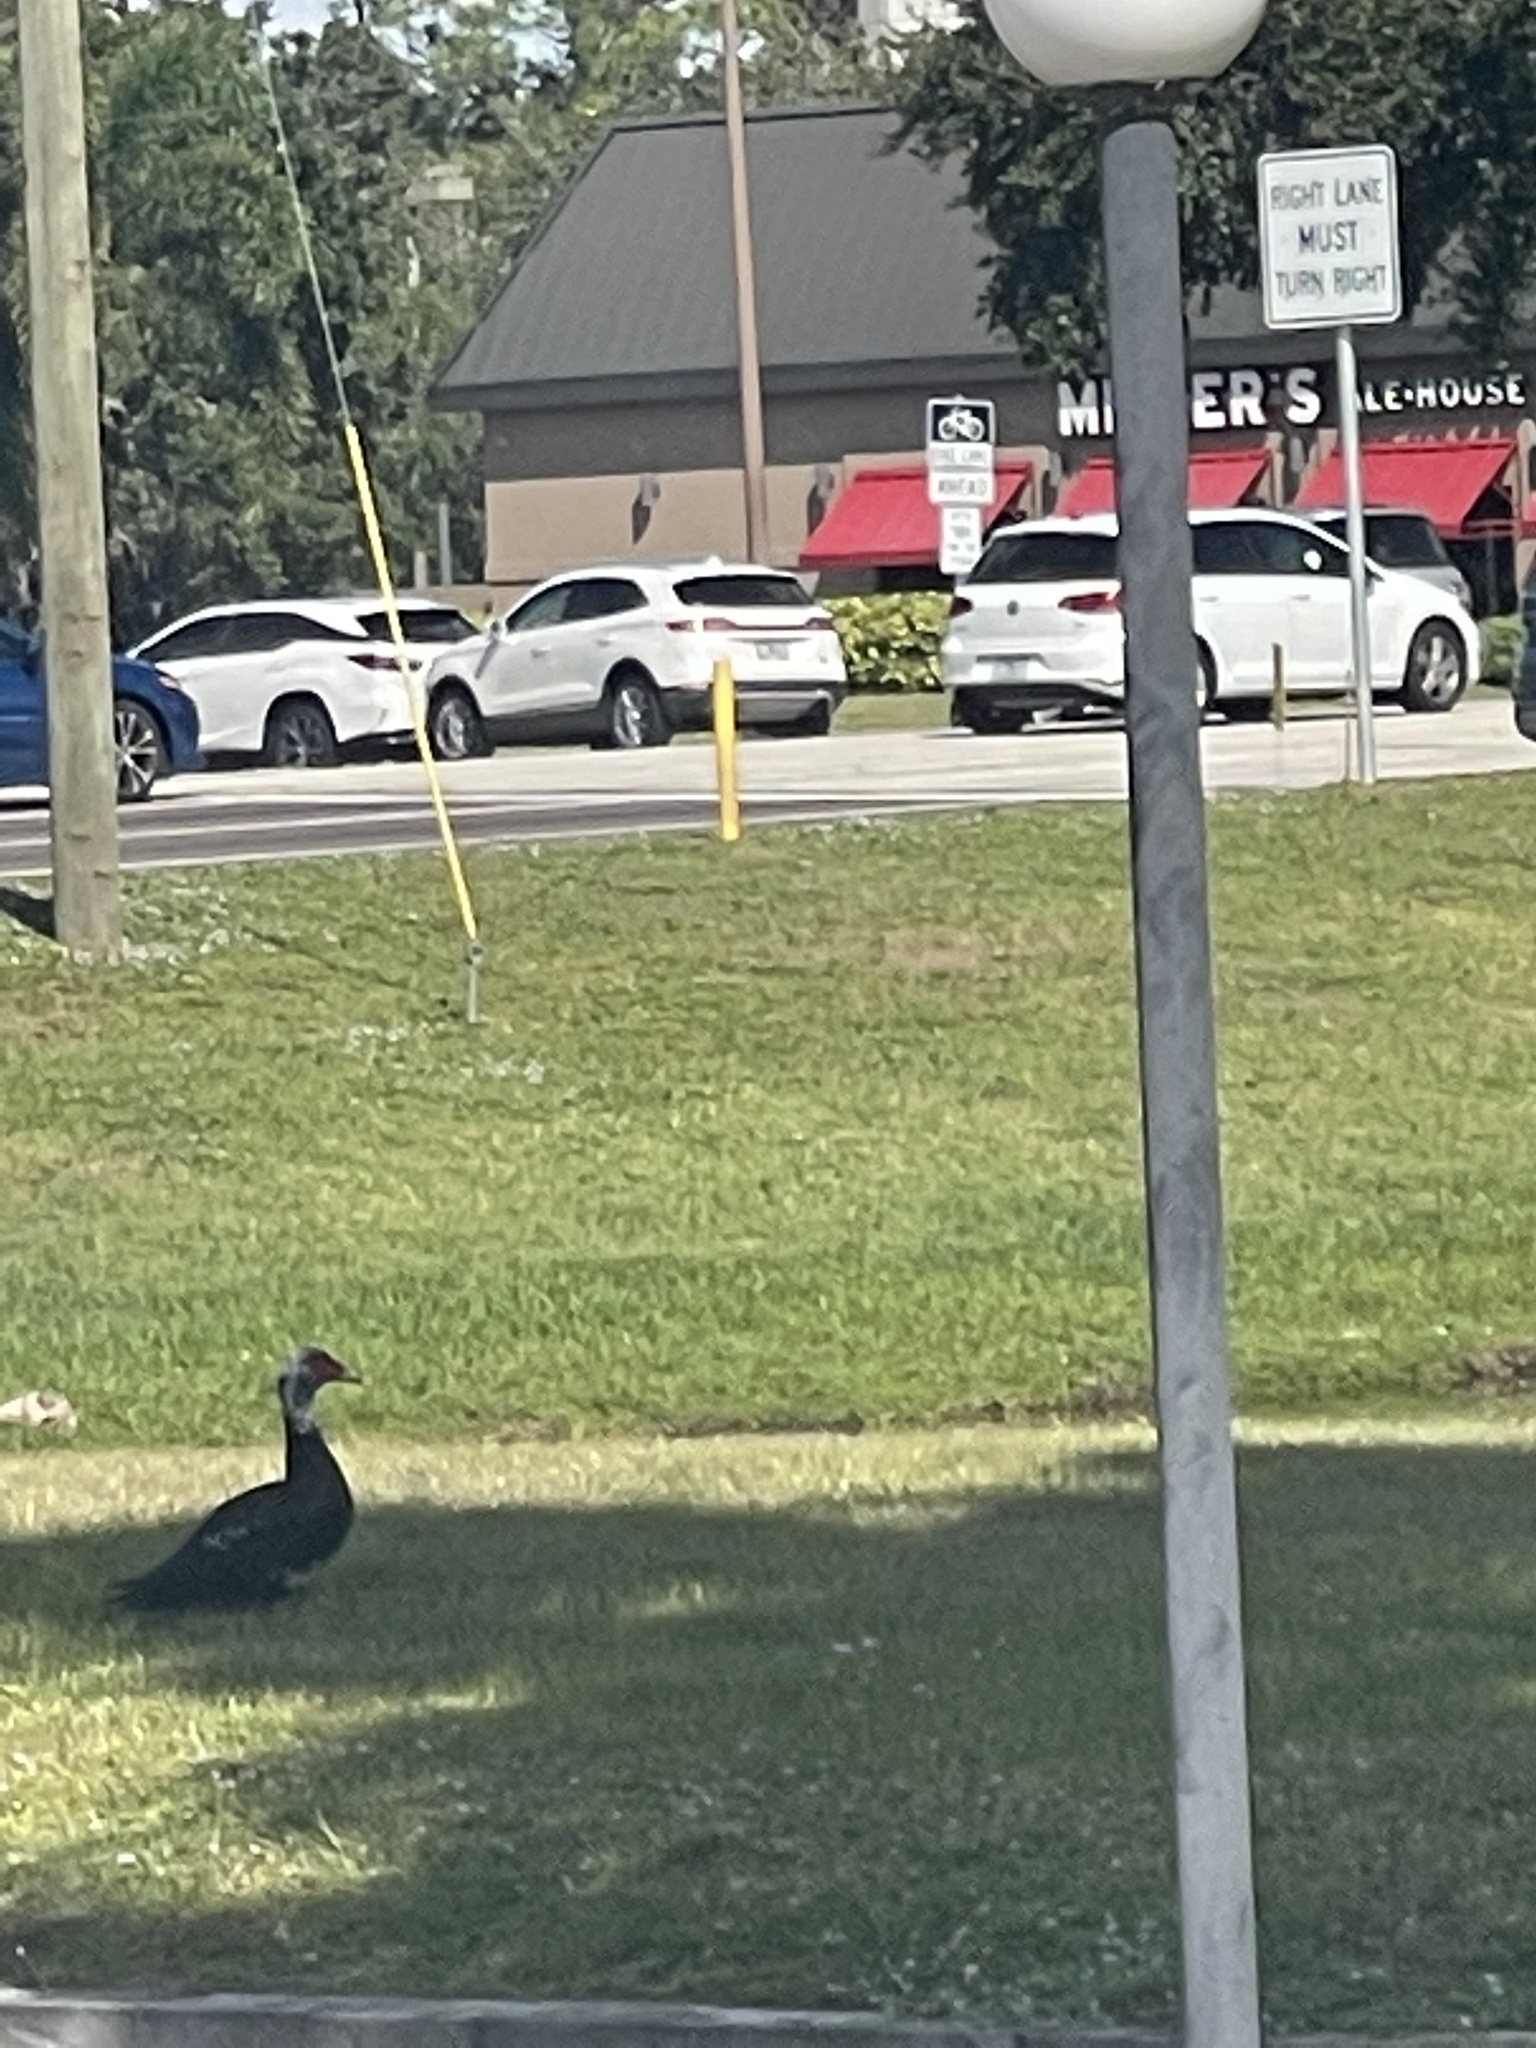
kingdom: Animalia
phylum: Chordata
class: Aves
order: Anseriformes
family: Anatidae
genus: Cairina
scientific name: Cairina moschata
